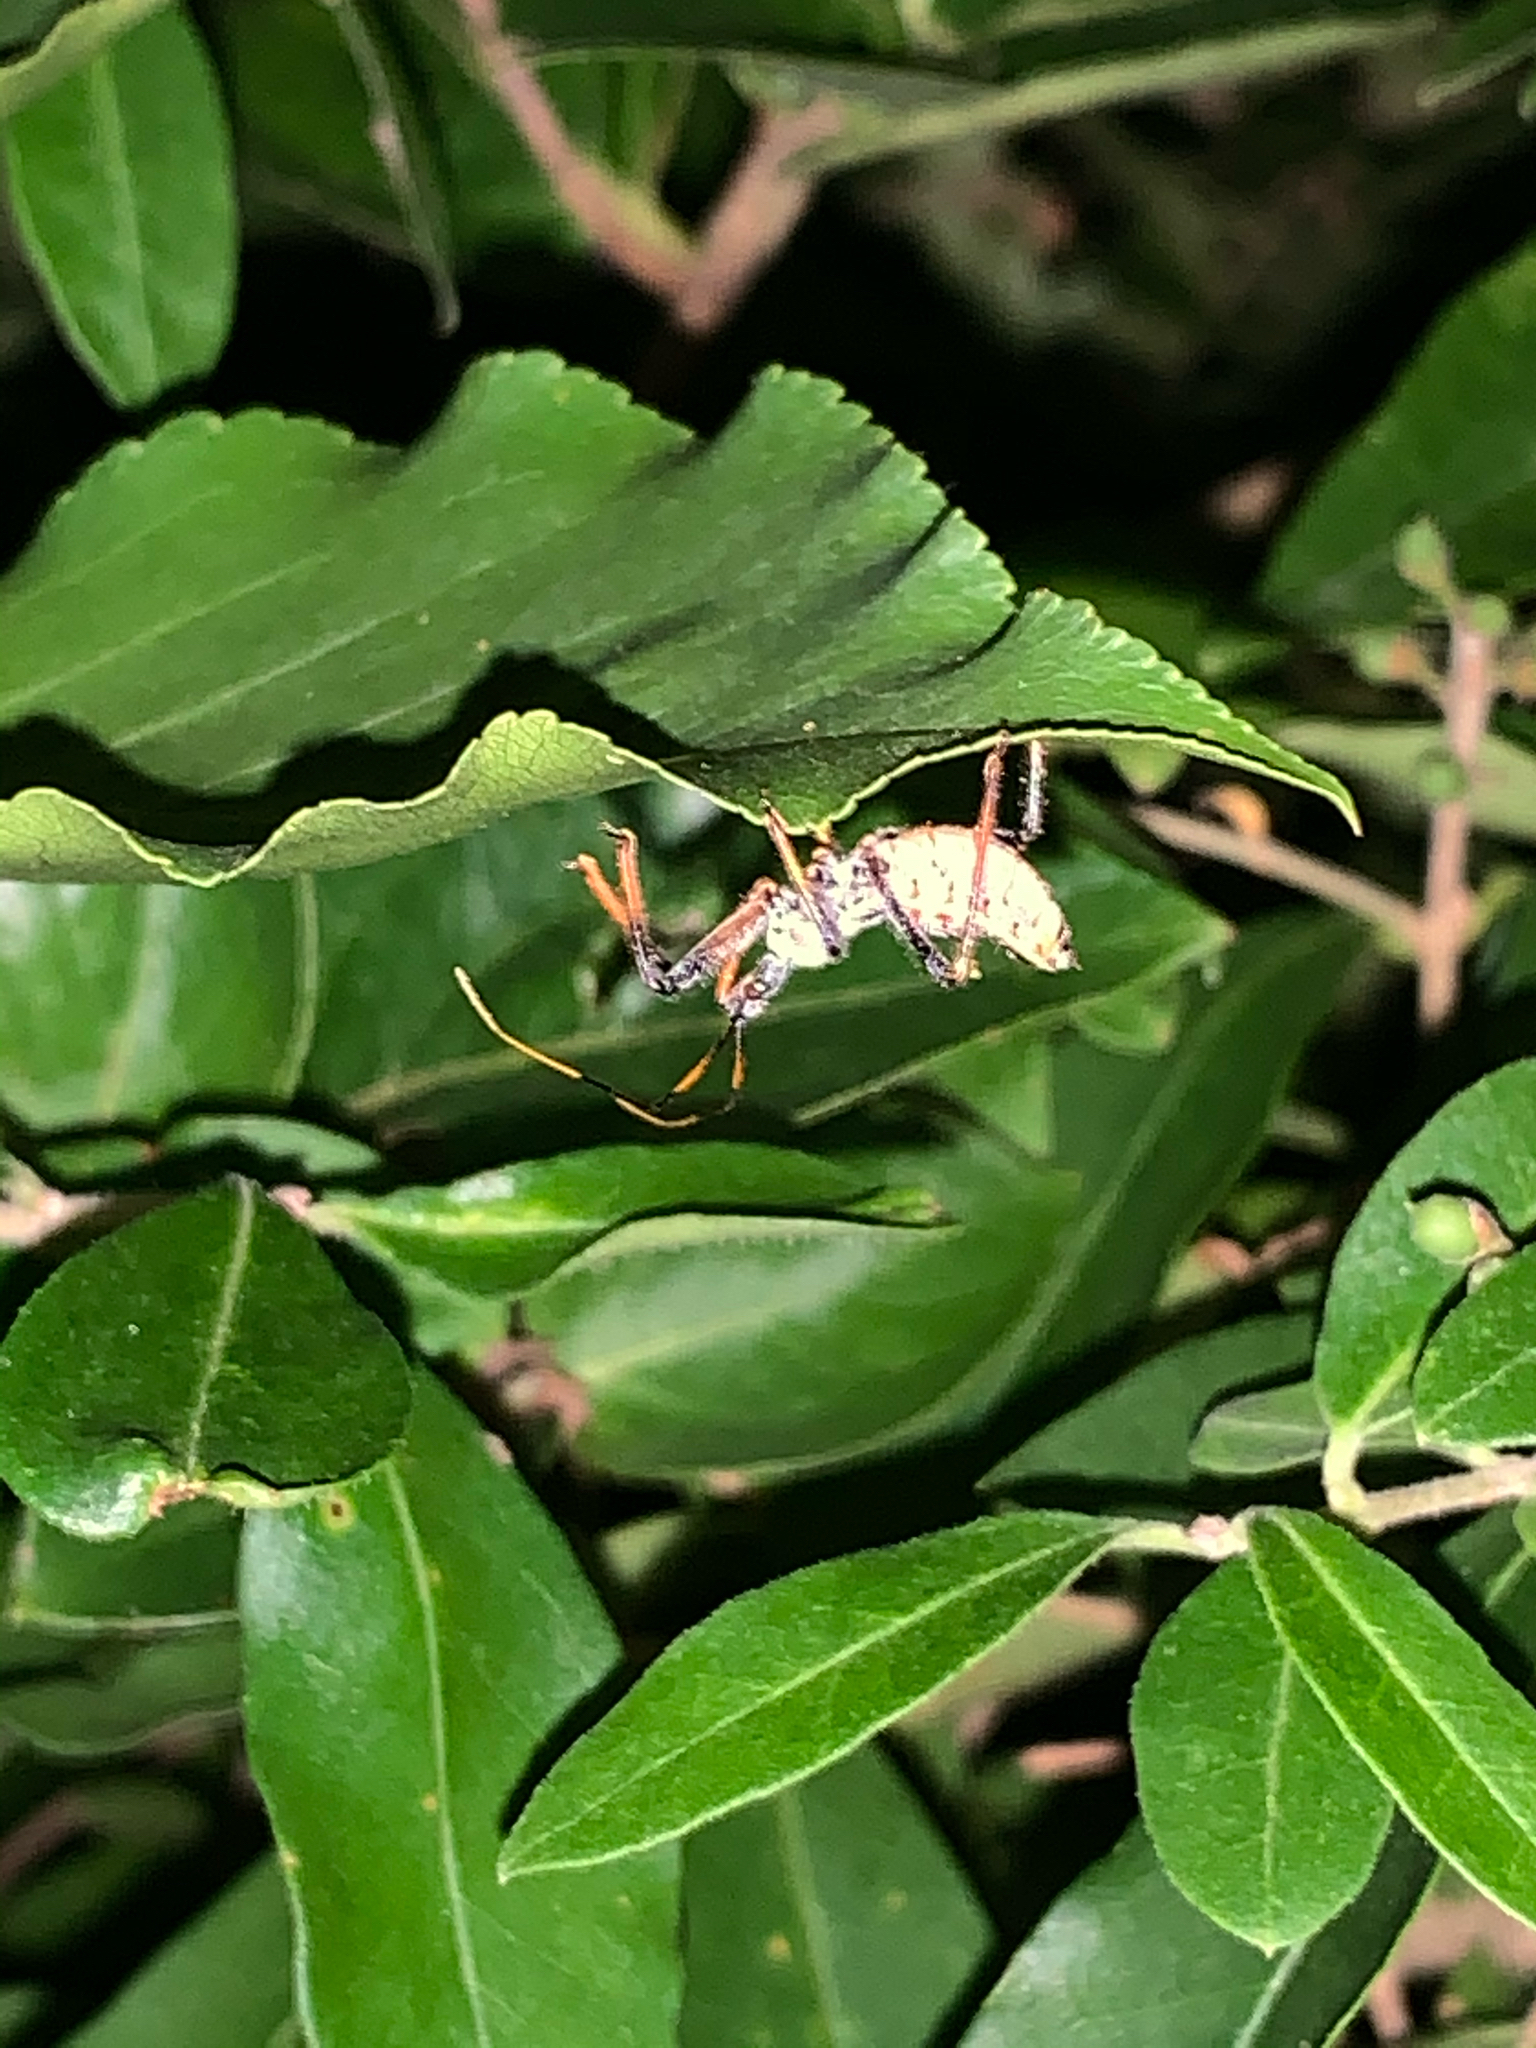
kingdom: Animalia
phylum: Arthropoda
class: Insecta
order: Hemiptera
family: Reduviidae
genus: Arilus
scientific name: Arilus cristatus
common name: North american wheel bug
